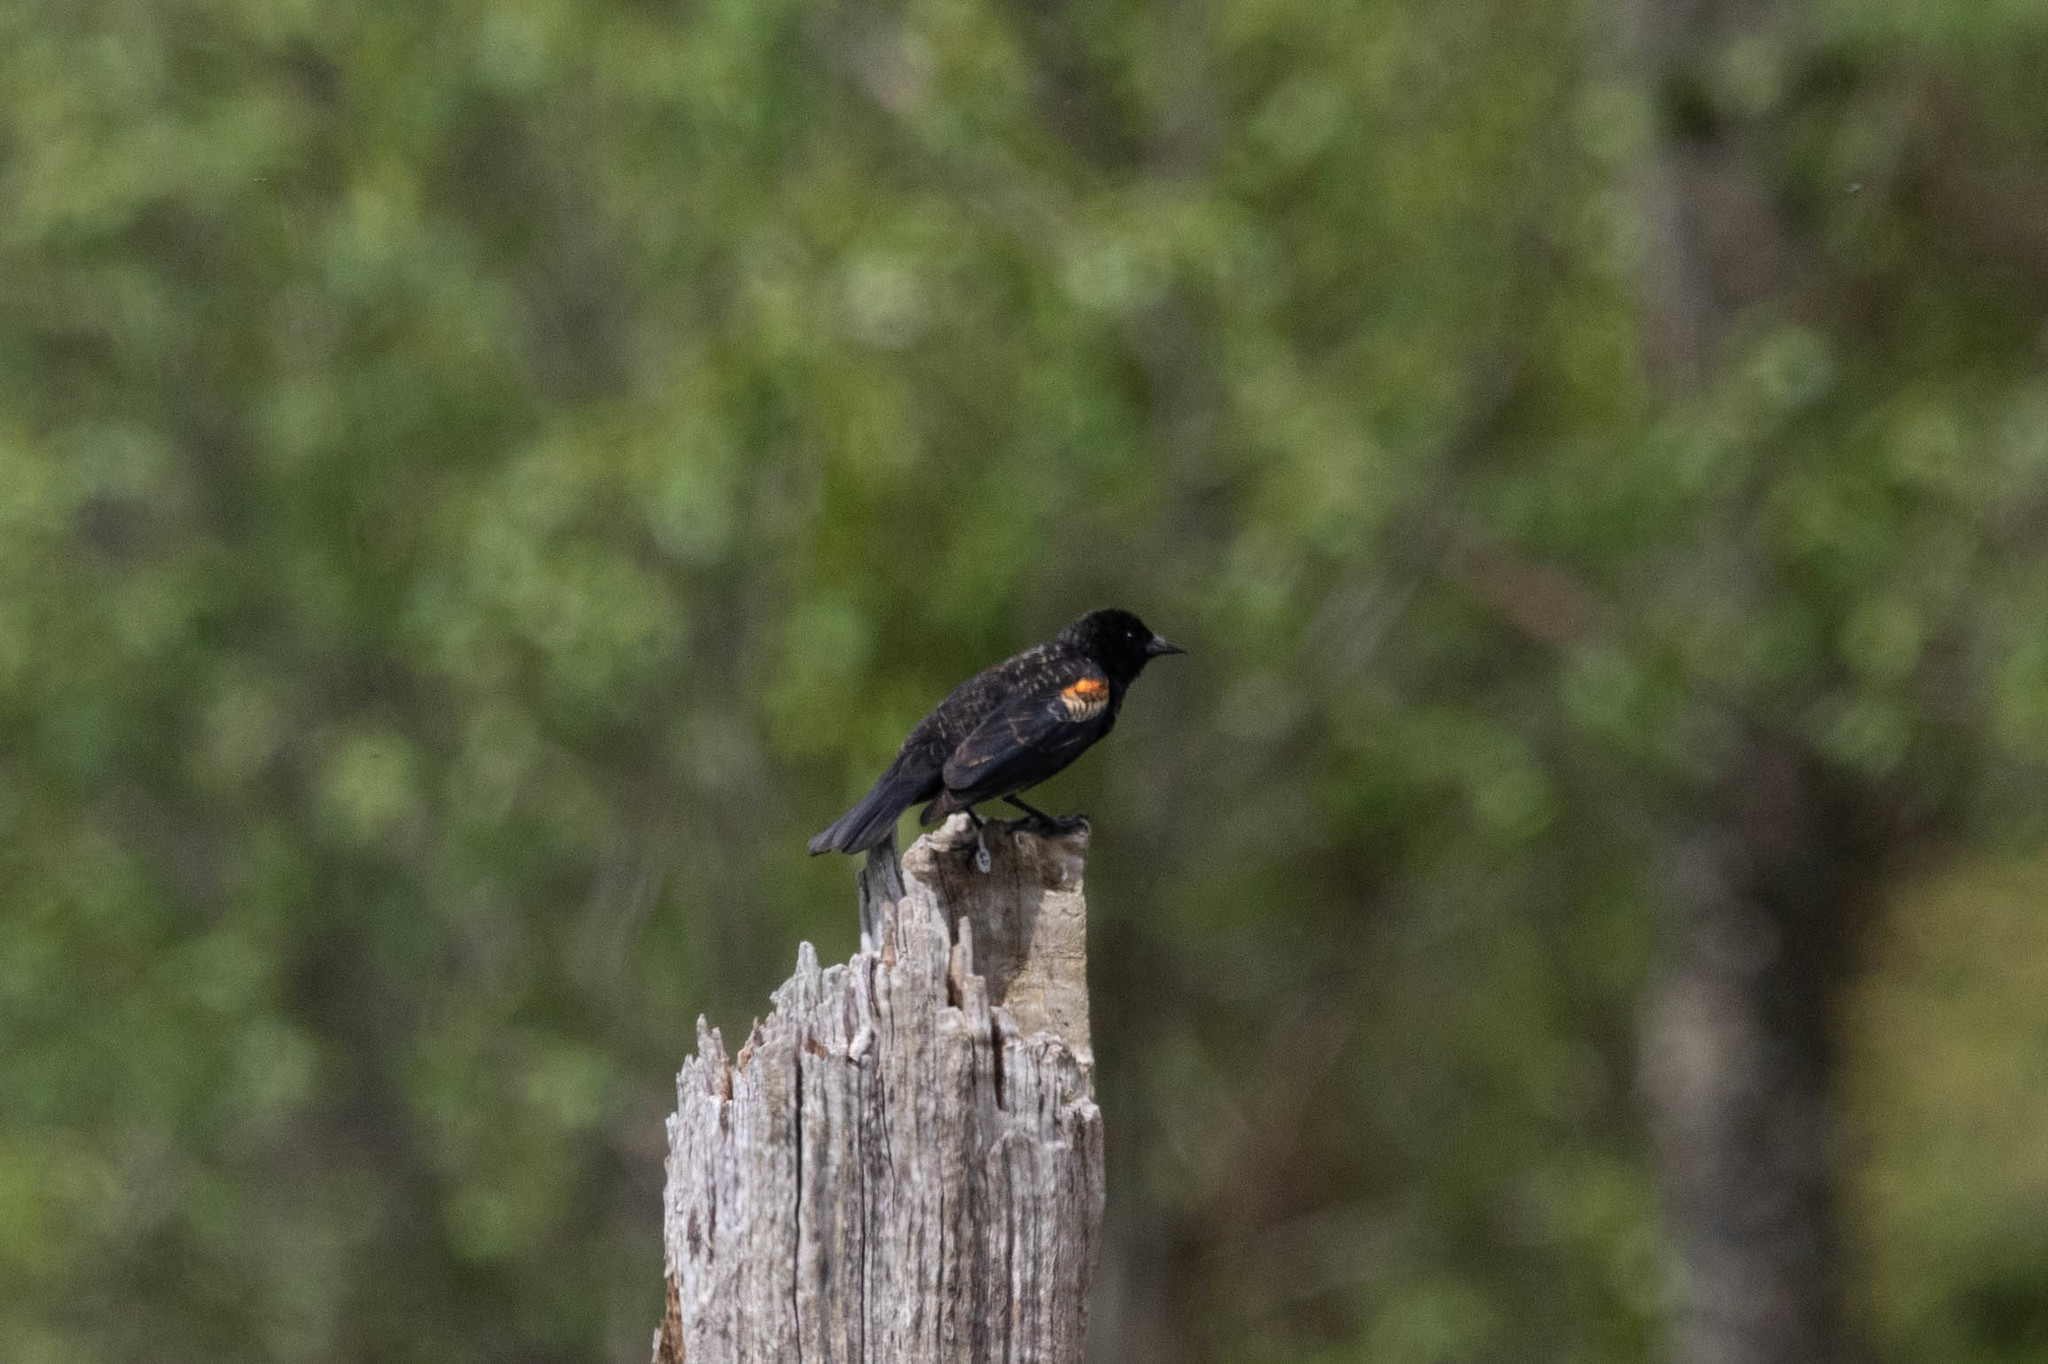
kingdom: Animalia
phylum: Chordata
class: Aves
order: Passeriformes
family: Icteridae
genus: Agelaius
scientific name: Agelaius phoeniceus
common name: Red-winged blackbird
